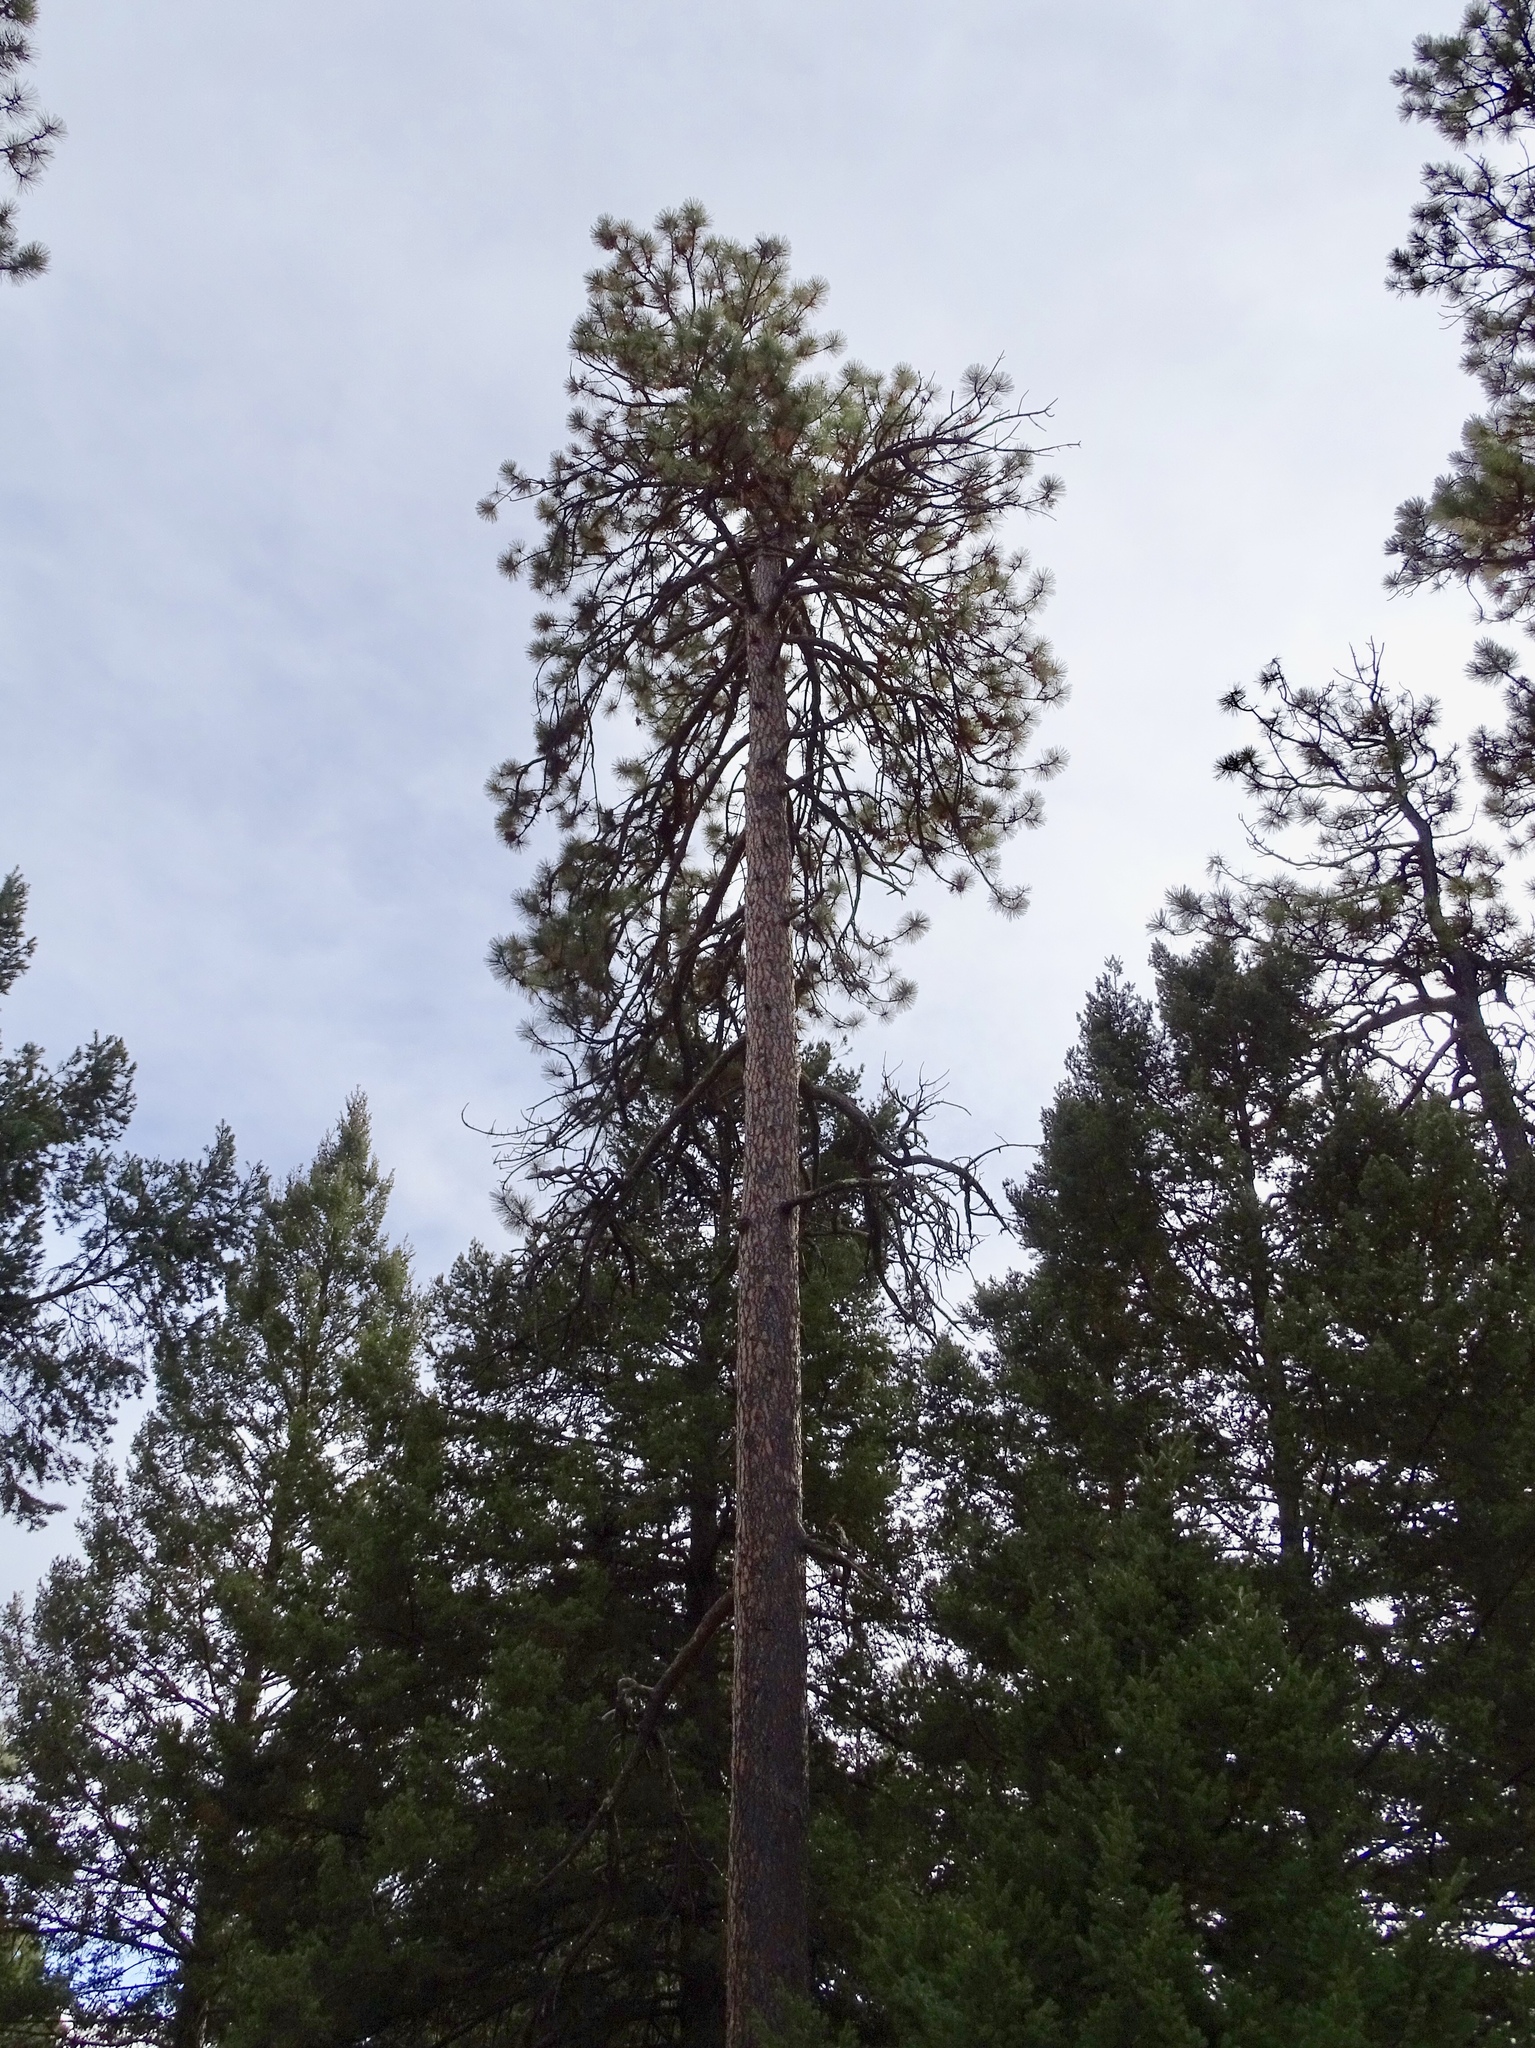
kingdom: Plantae
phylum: Tracheophyta
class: Pinopsida
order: Pinales
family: Pinaceae
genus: Pinus
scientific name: Pinus ponderosa
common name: Western yellow-pine
